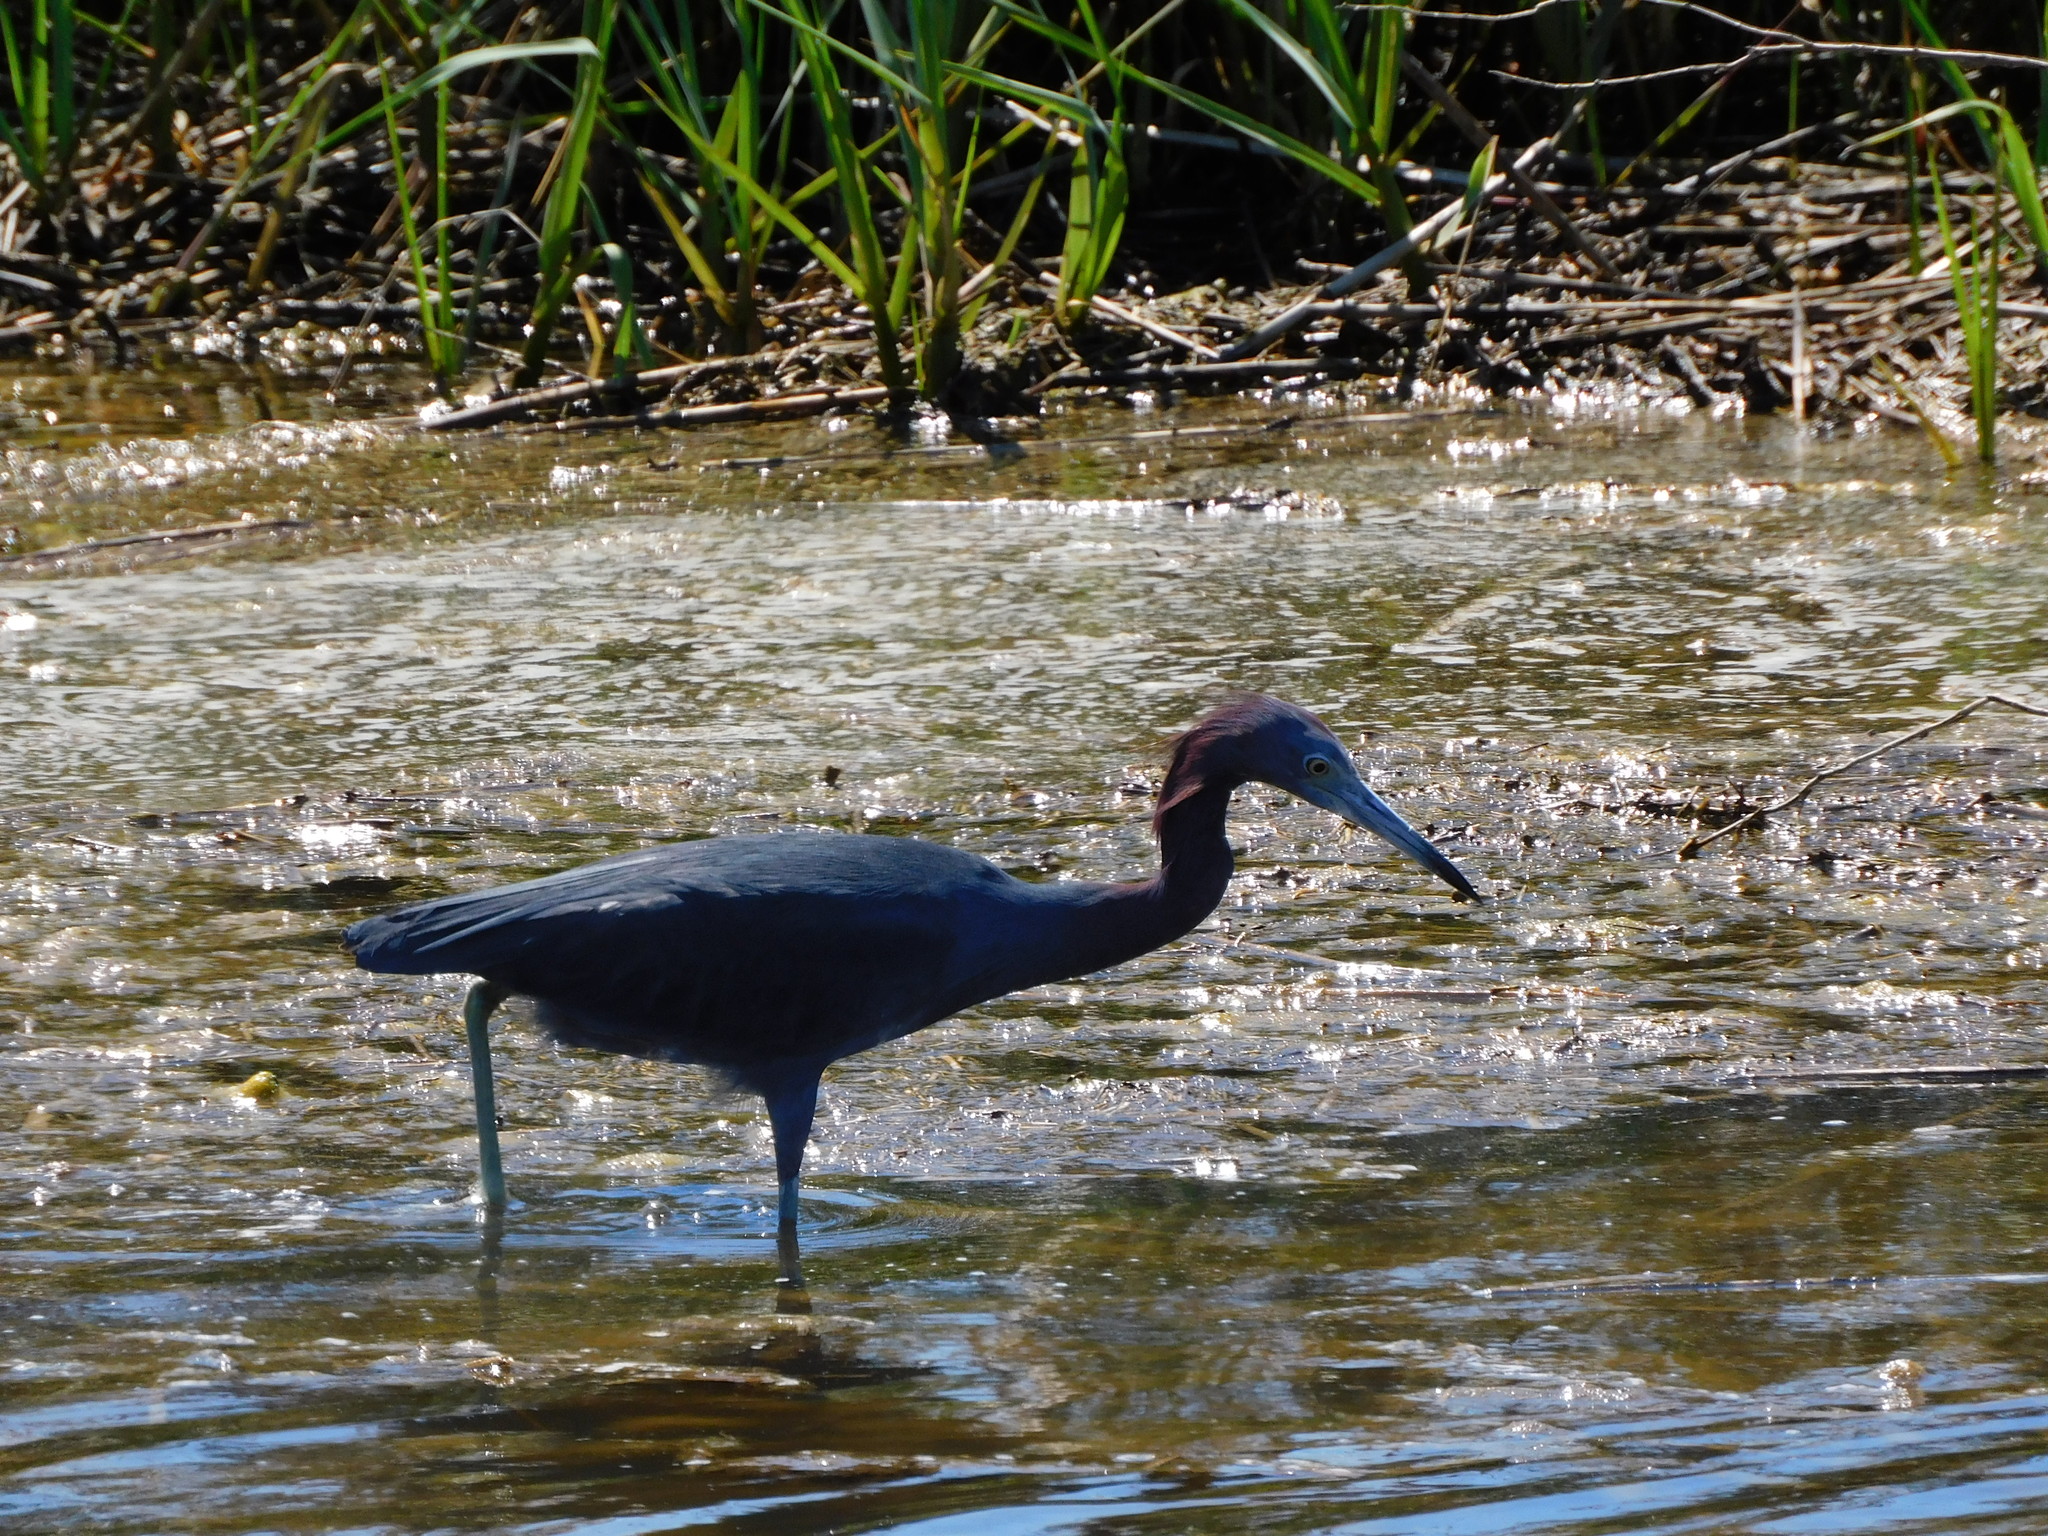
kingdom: Animalia
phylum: Chordata
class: Aves
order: Pelecaniformes
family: Ardeidae
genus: Egretta
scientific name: Egretta caerulea
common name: Little blue heron
